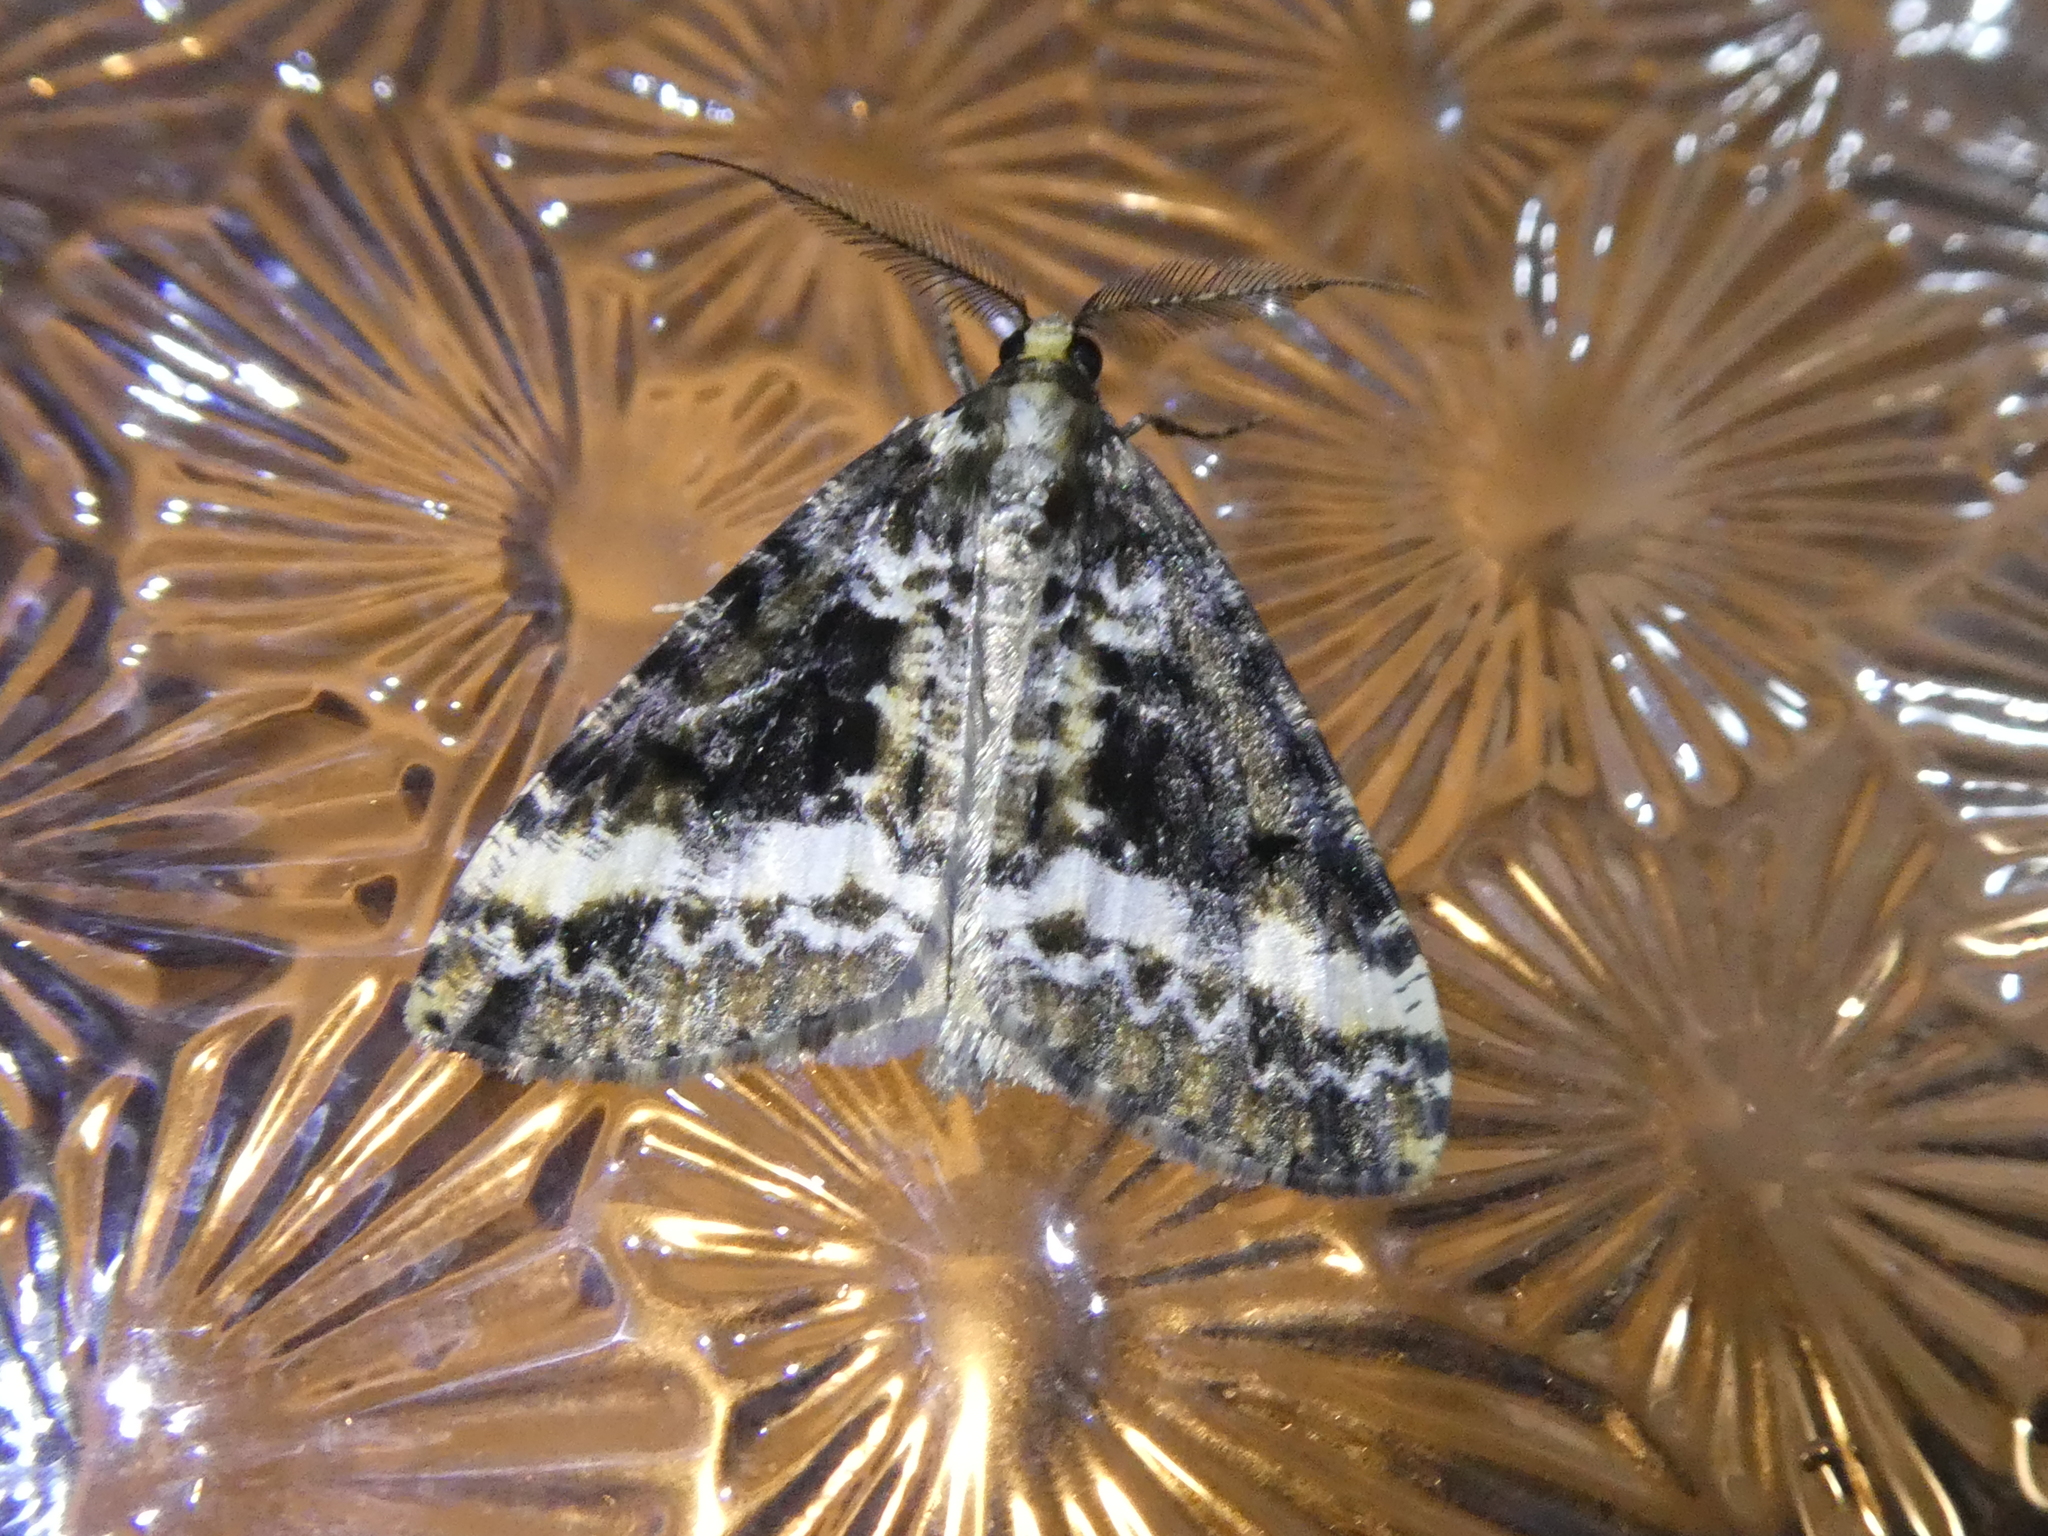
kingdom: Animalia
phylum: Arthropoda
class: Insecta
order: Lepidoptera
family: Geometridae
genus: Pseudocoremia
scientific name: Pseudocoremia leucelaea
